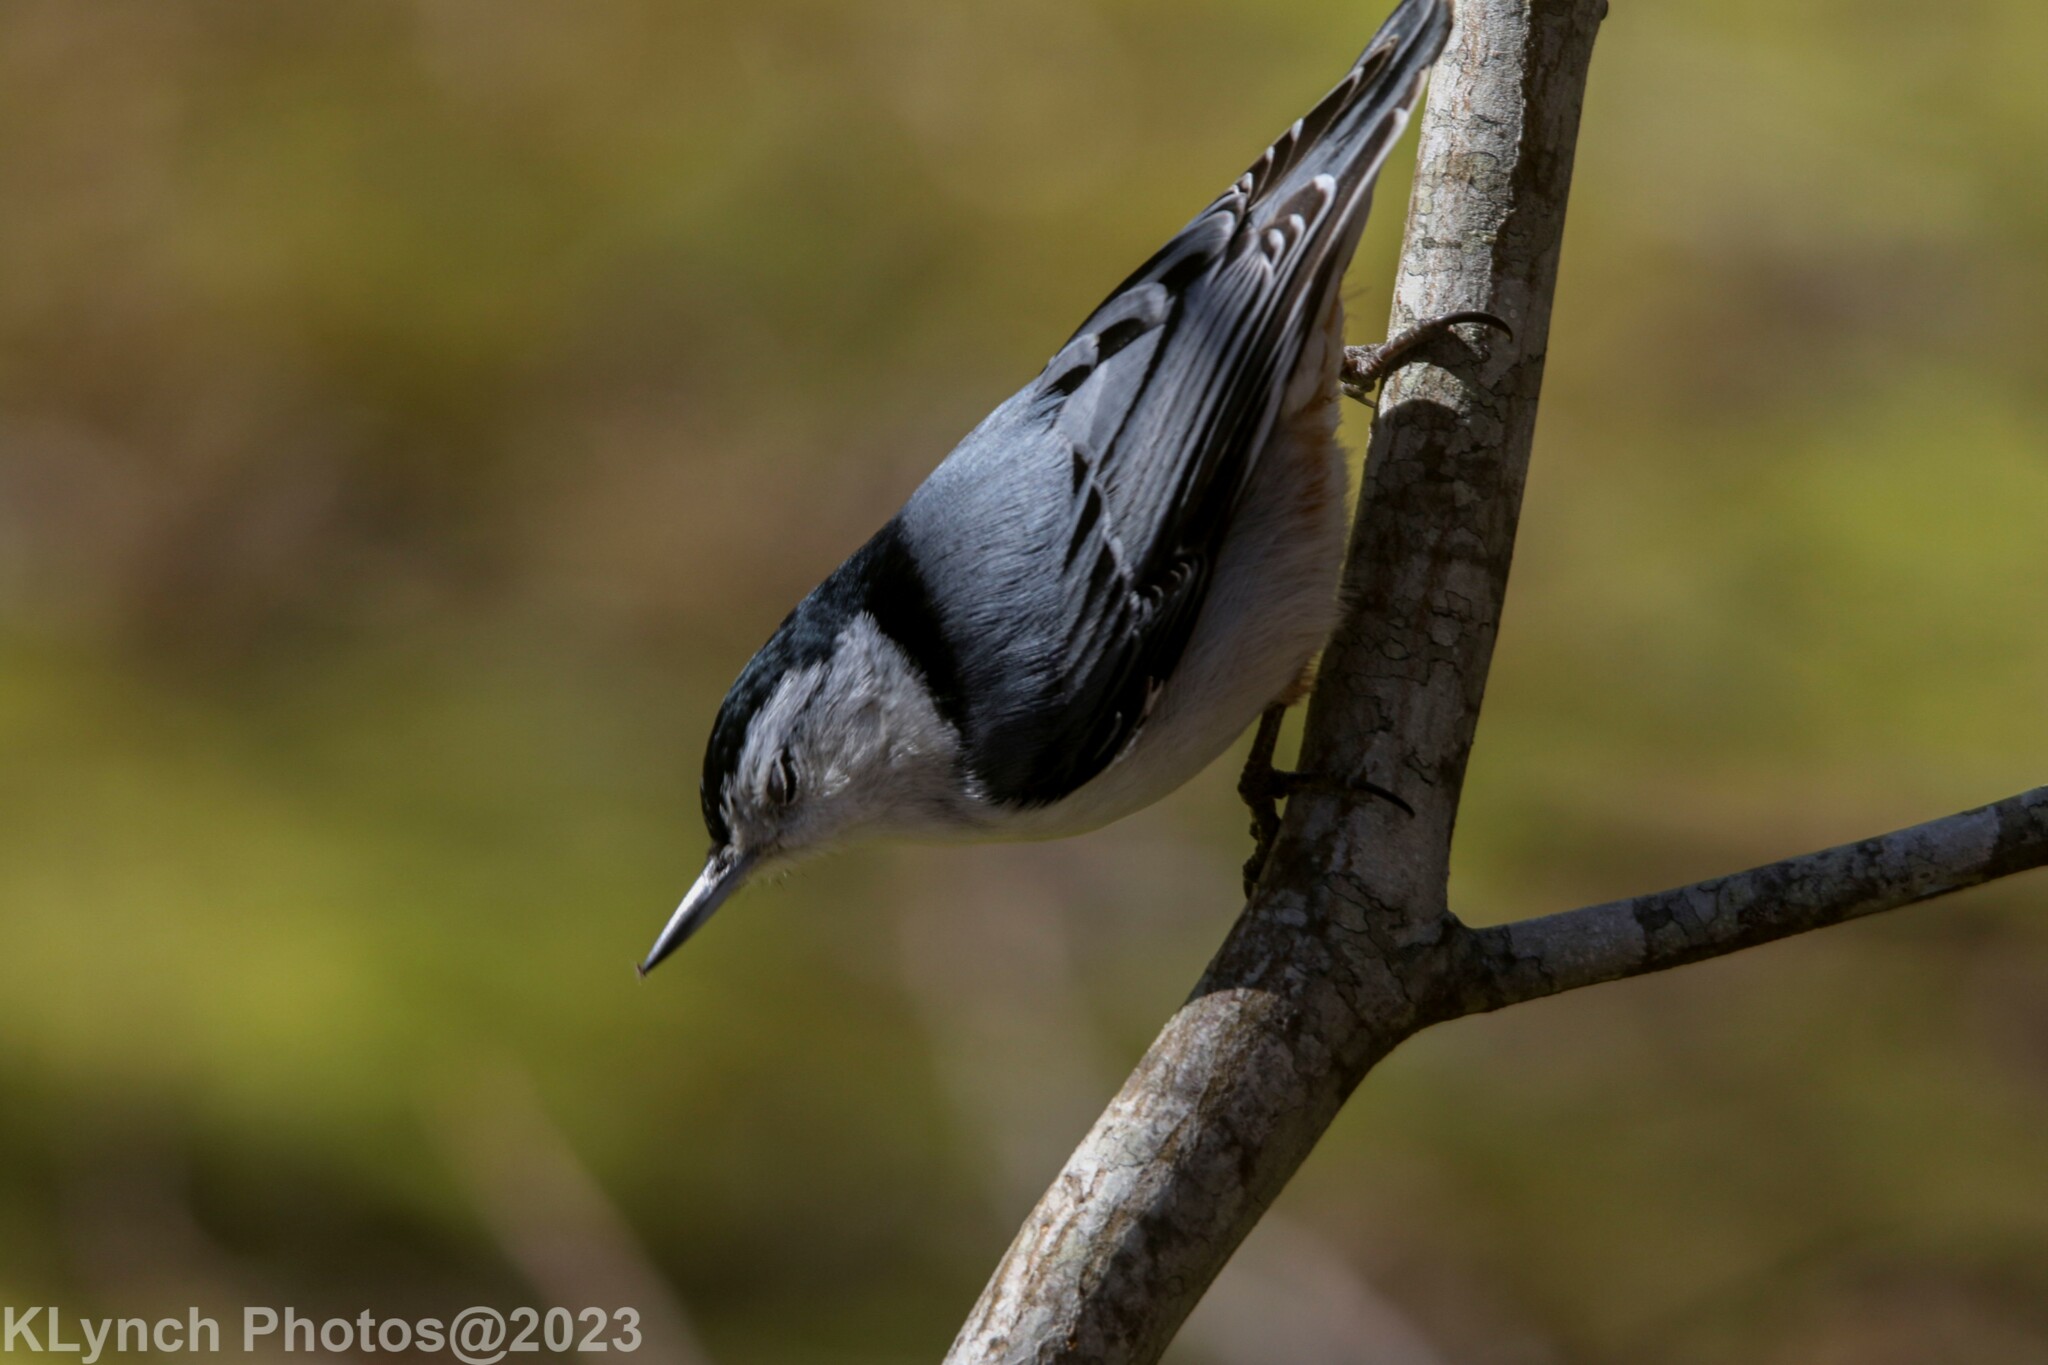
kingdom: Animalia
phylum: Chordata
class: Aves
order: Passeriformes
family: Sittidae
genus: Sitta
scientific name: Sitta carolinensis
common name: White-breasted nuthatch
